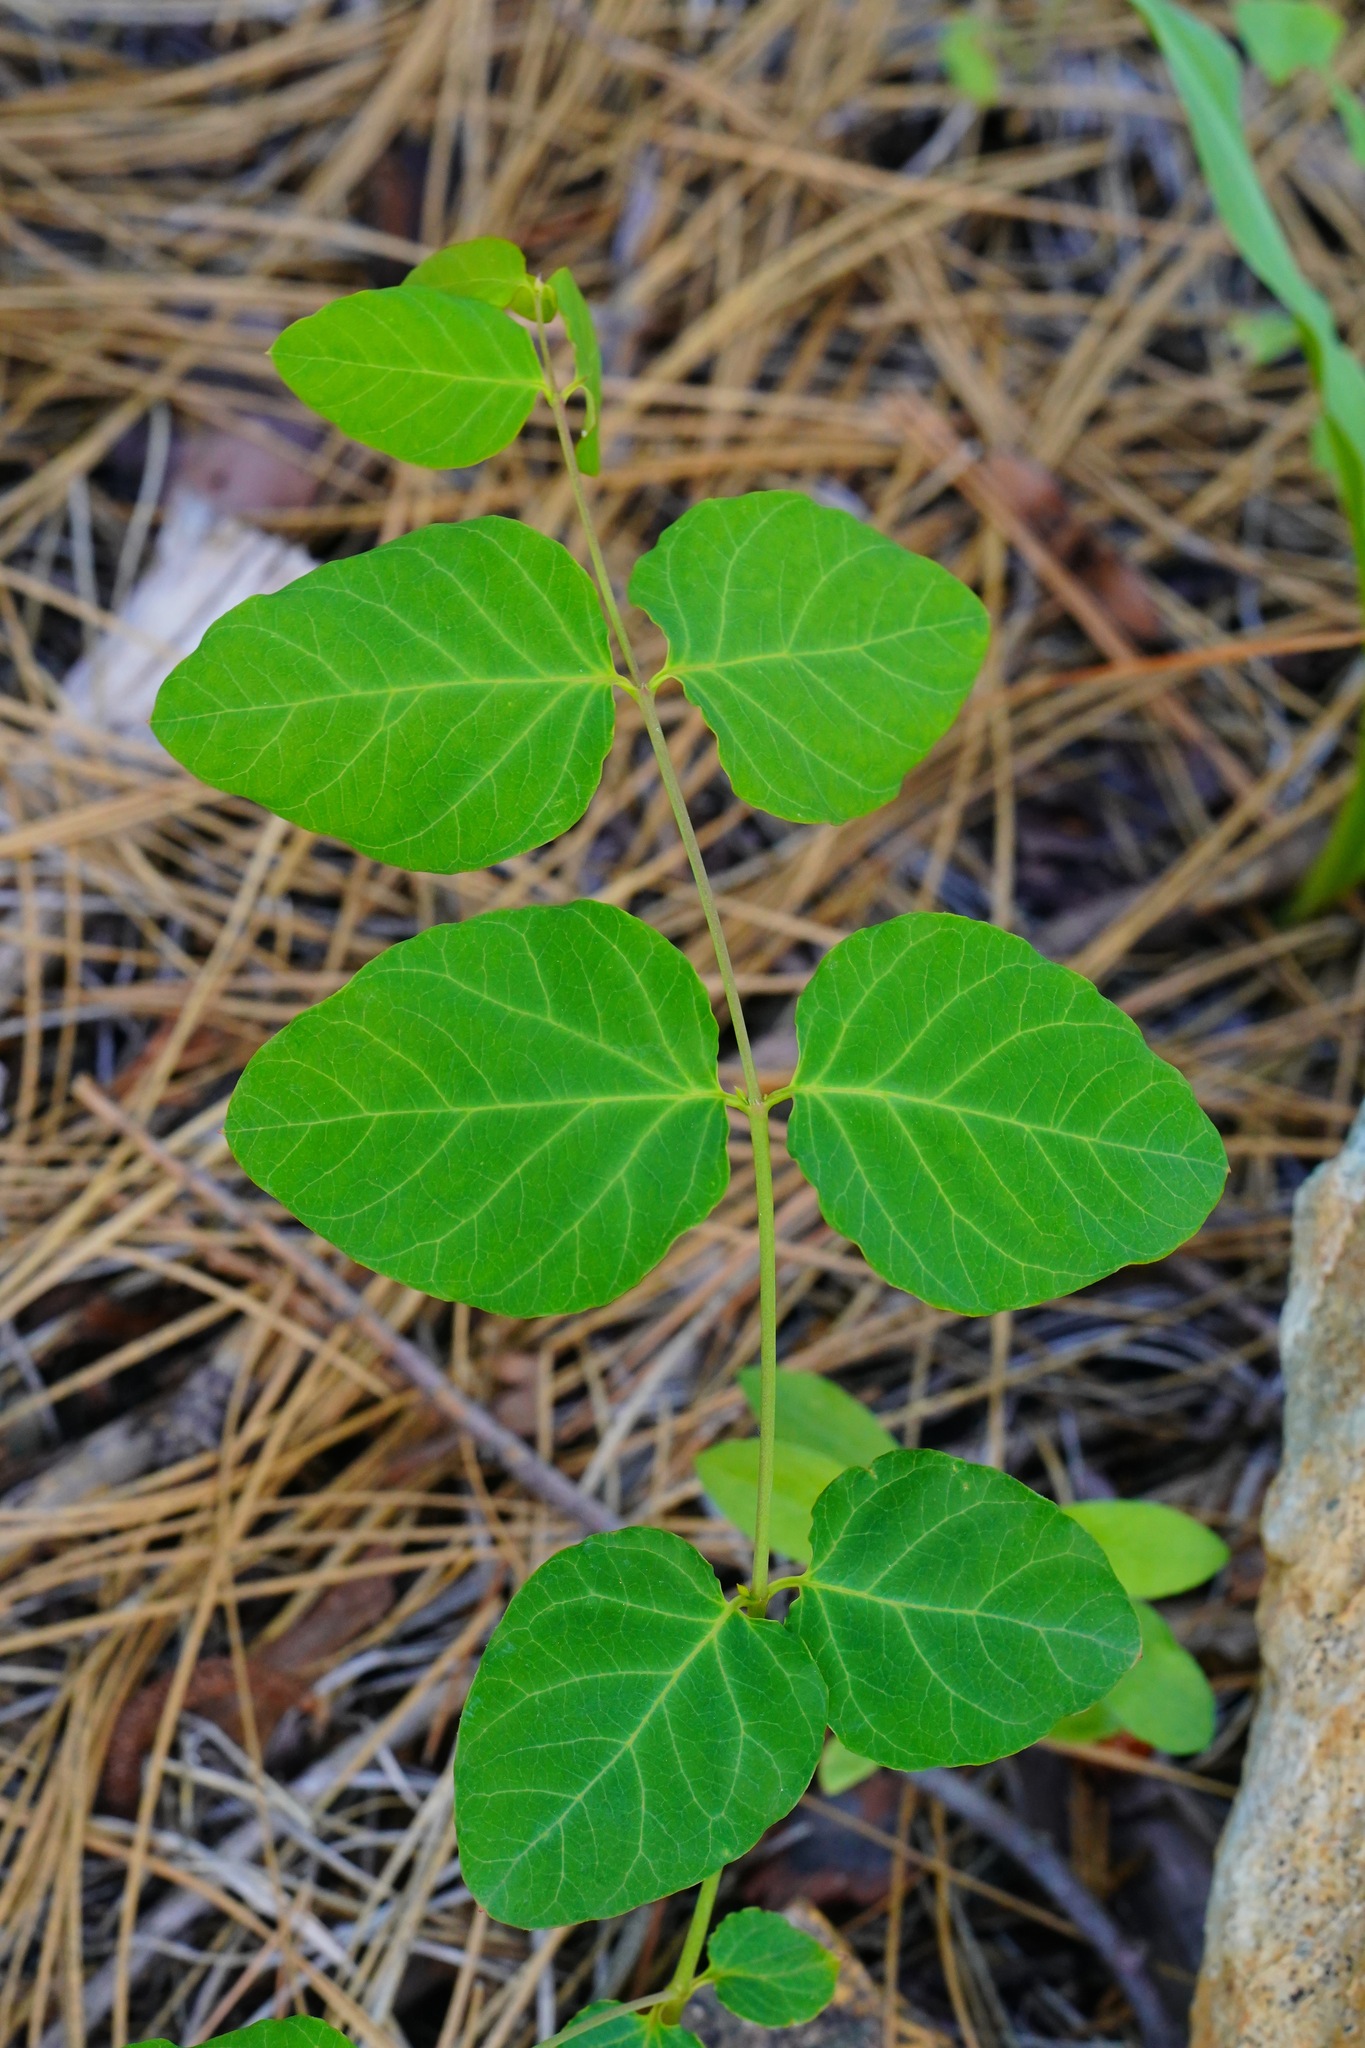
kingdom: Plantae
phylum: Tracheophyta
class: Magnoliopsida
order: Gentianales
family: Apocynaceae
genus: Apocynum
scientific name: Apocynum androsaemifolium
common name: Spreading dogbane
